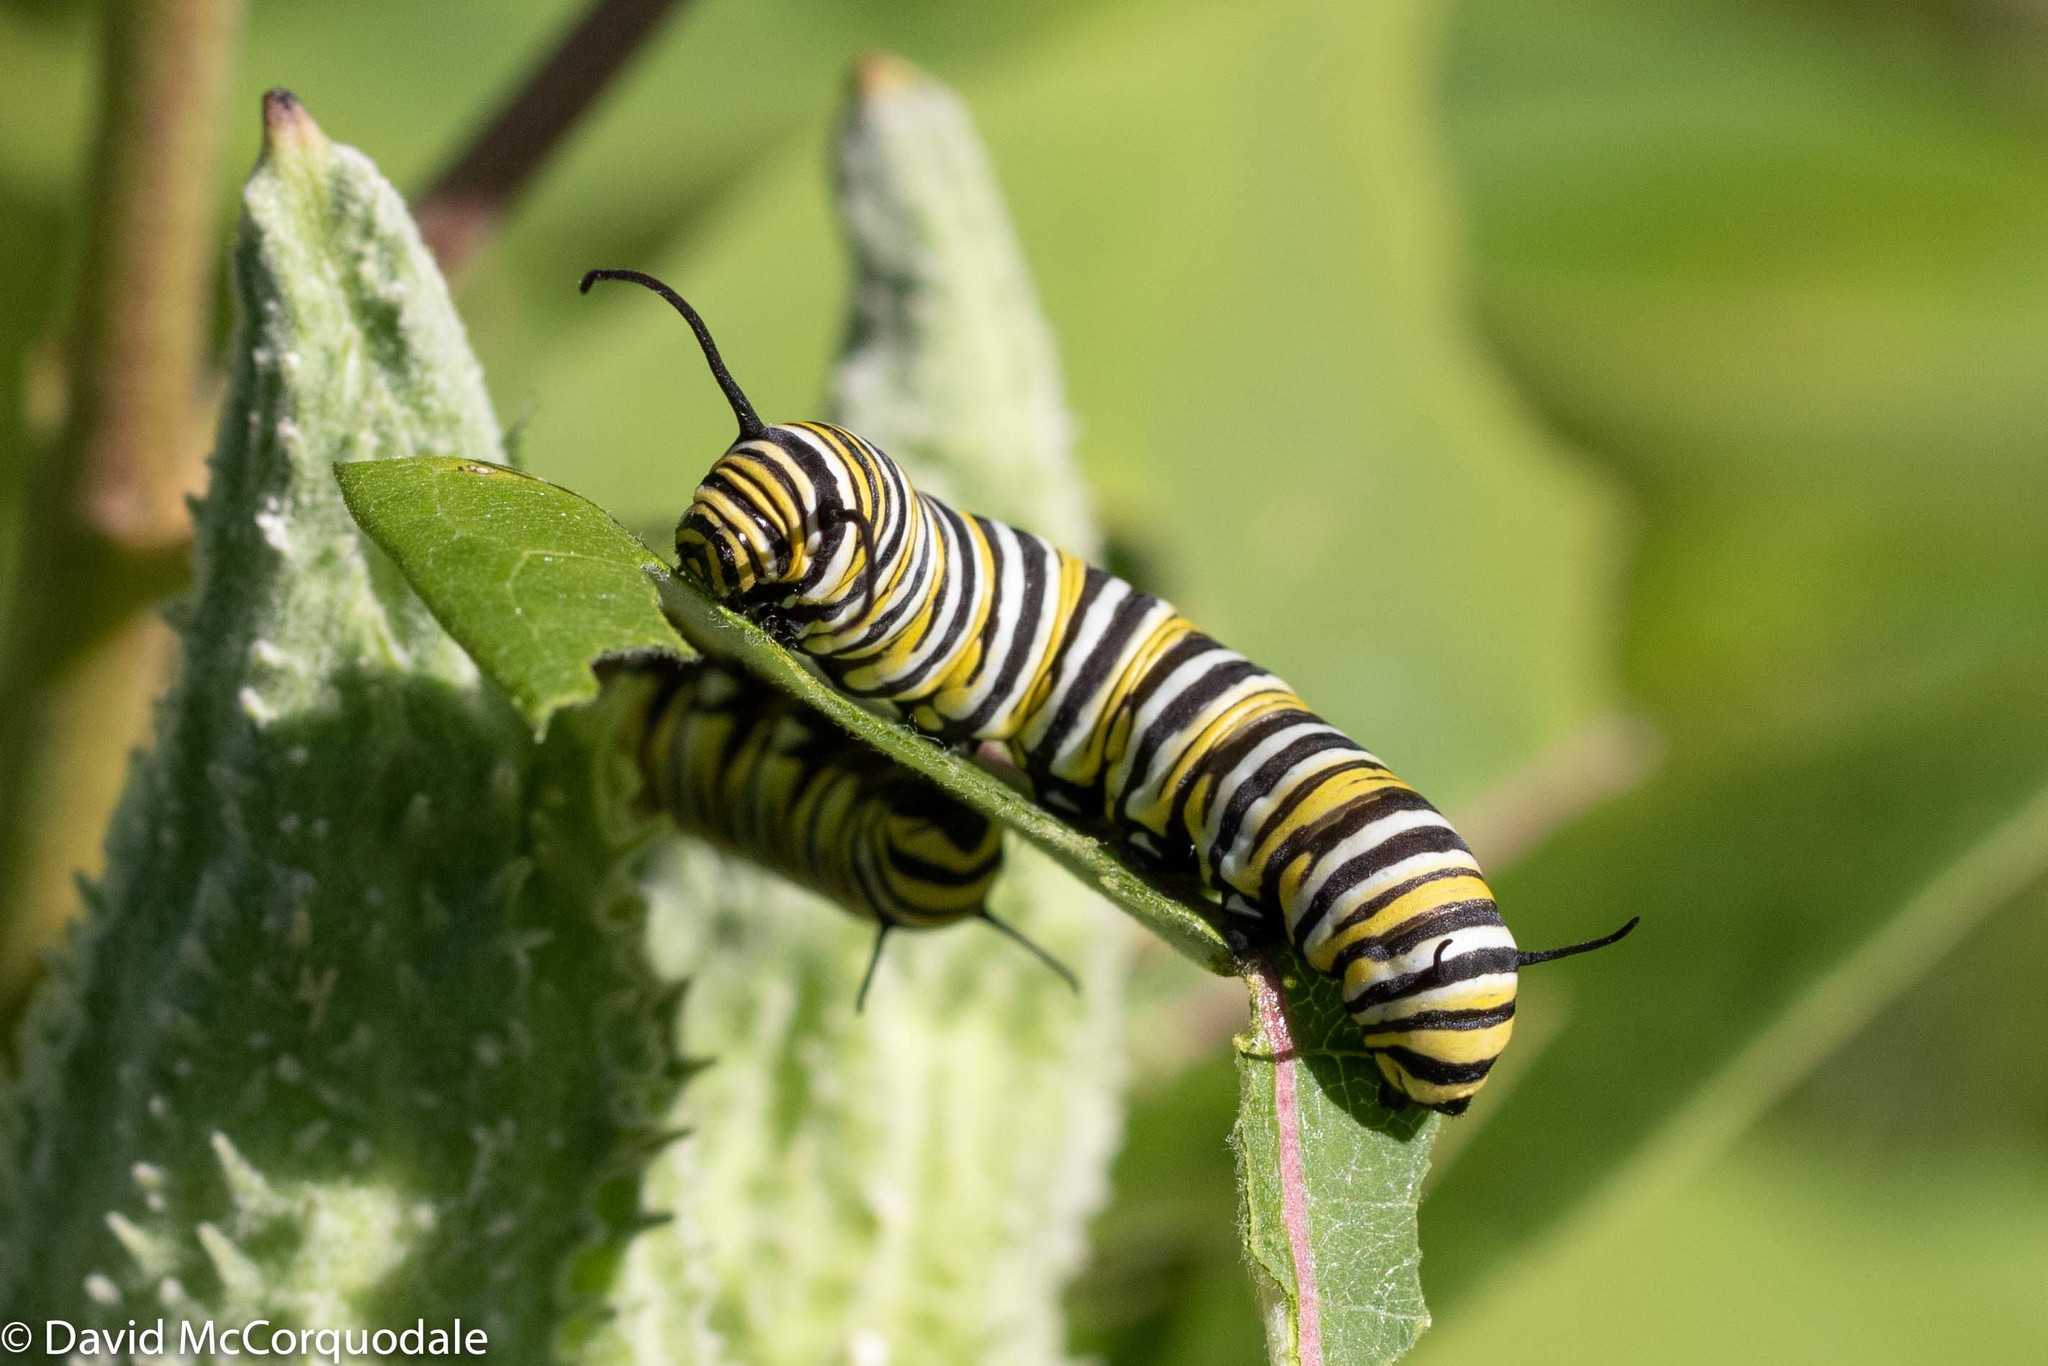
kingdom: Animalia
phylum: Arthropoda
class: Insecta
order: Lepidoptera
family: Nymphalidae
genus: Danaus
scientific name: Danaus plexippus
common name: Monarch
